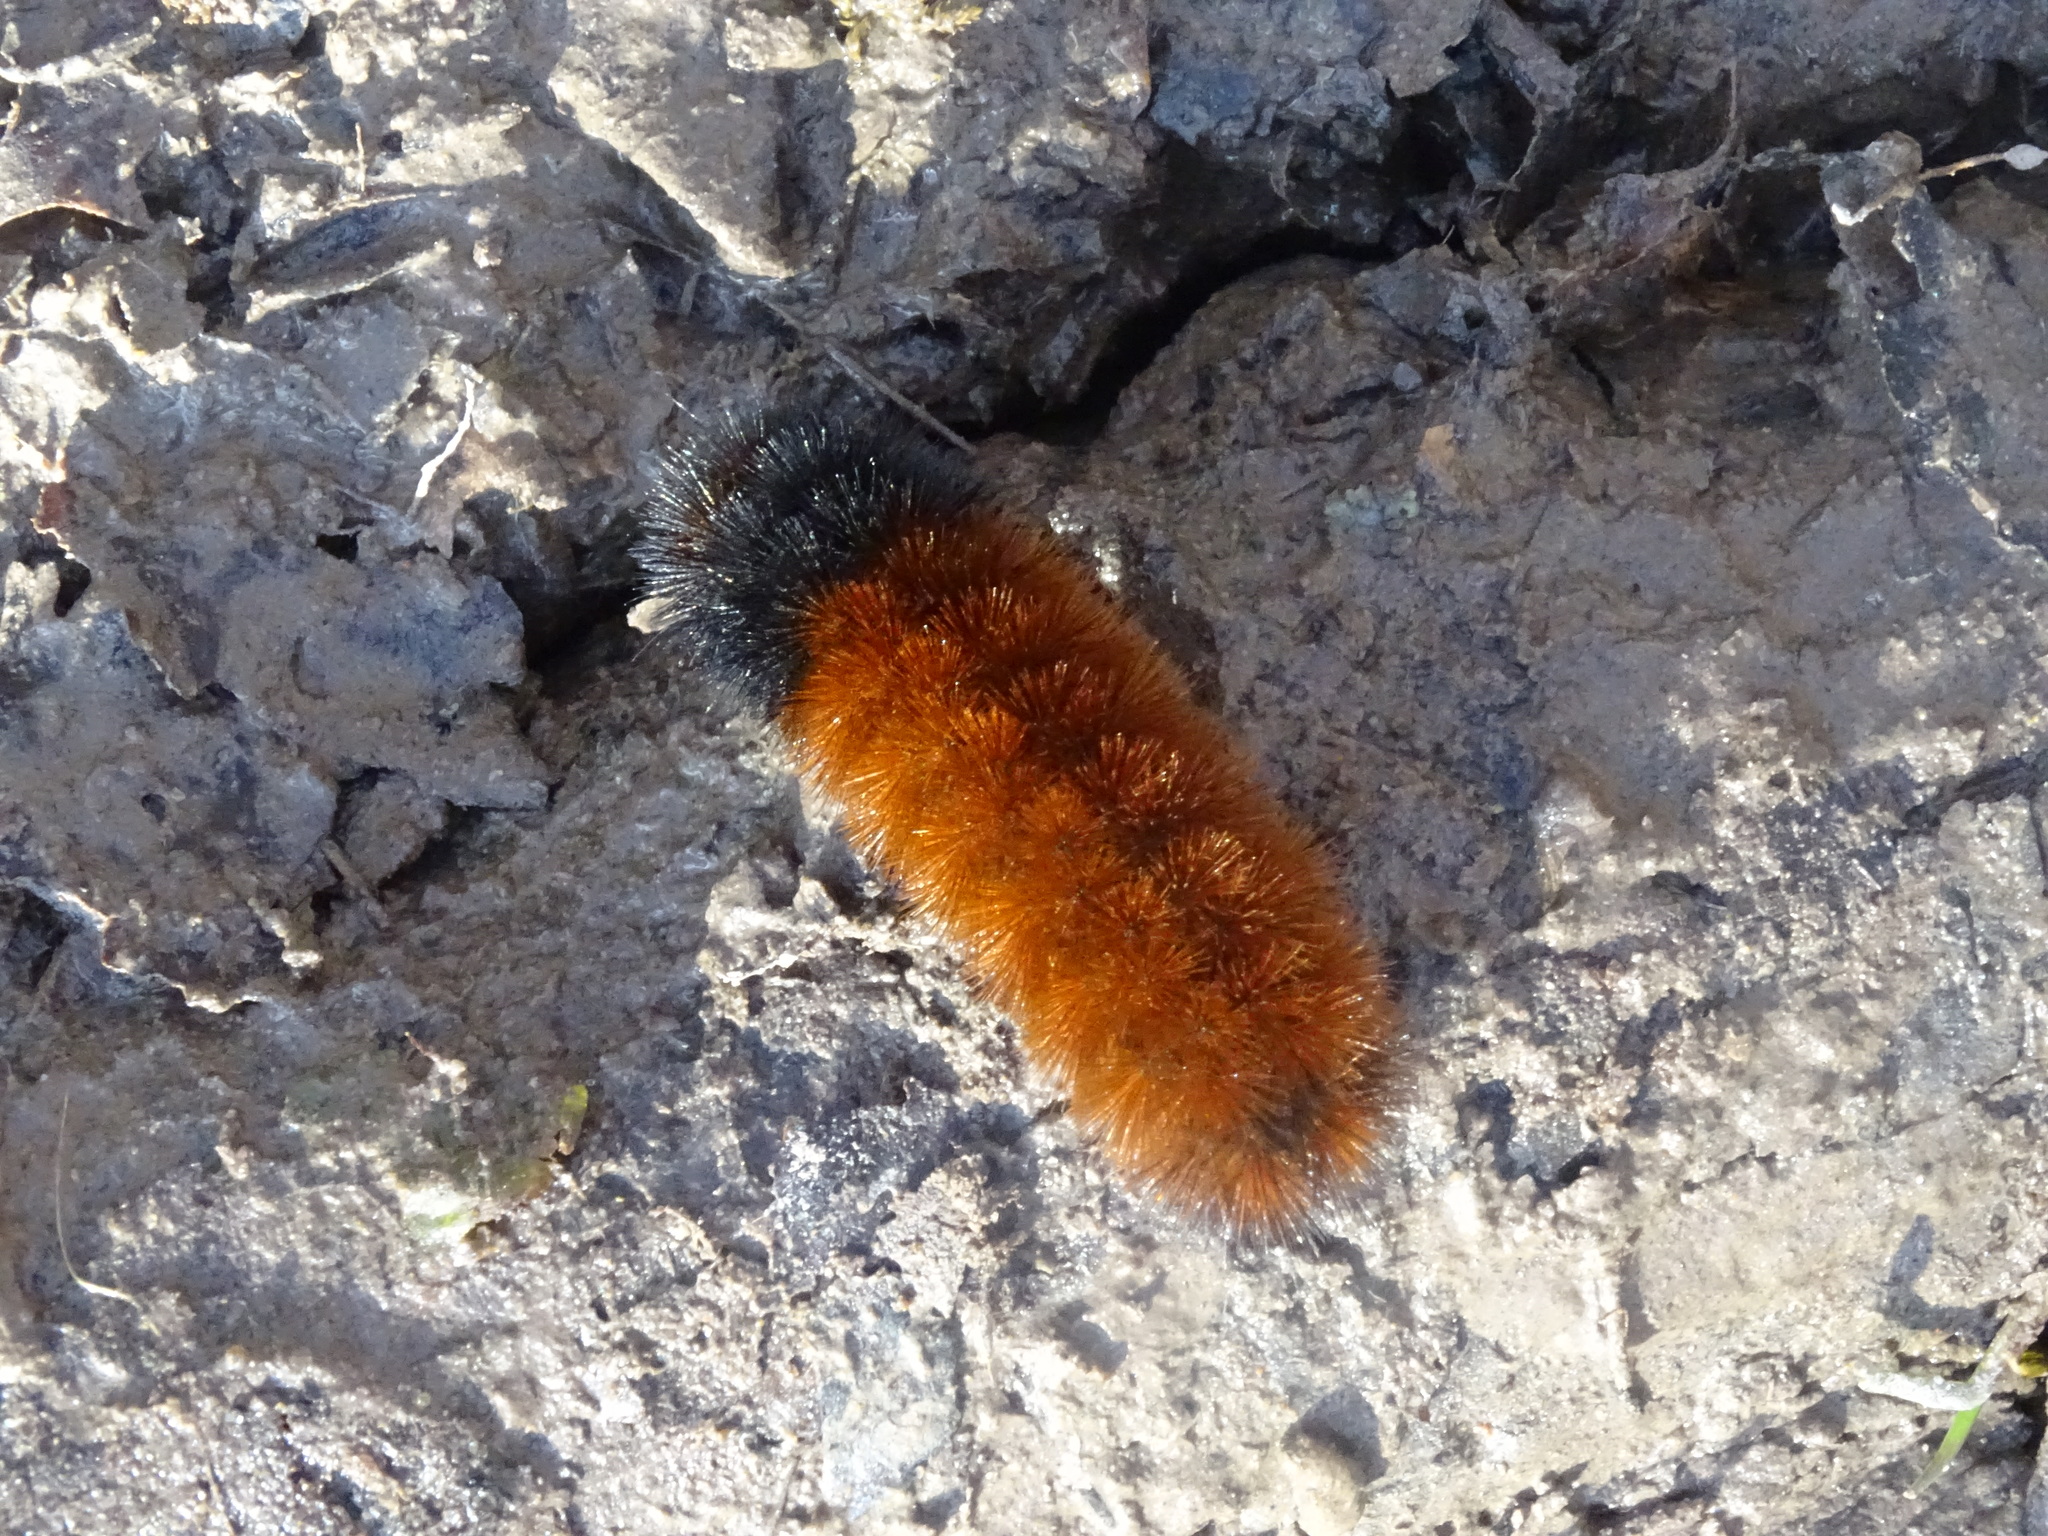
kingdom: Animalia
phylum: Arthropoda
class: Insecta
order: Lepidoptera
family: Erebidae
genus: Pyrrharctia
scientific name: Pyrrharctia isabella
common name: Isabella tiger moth
